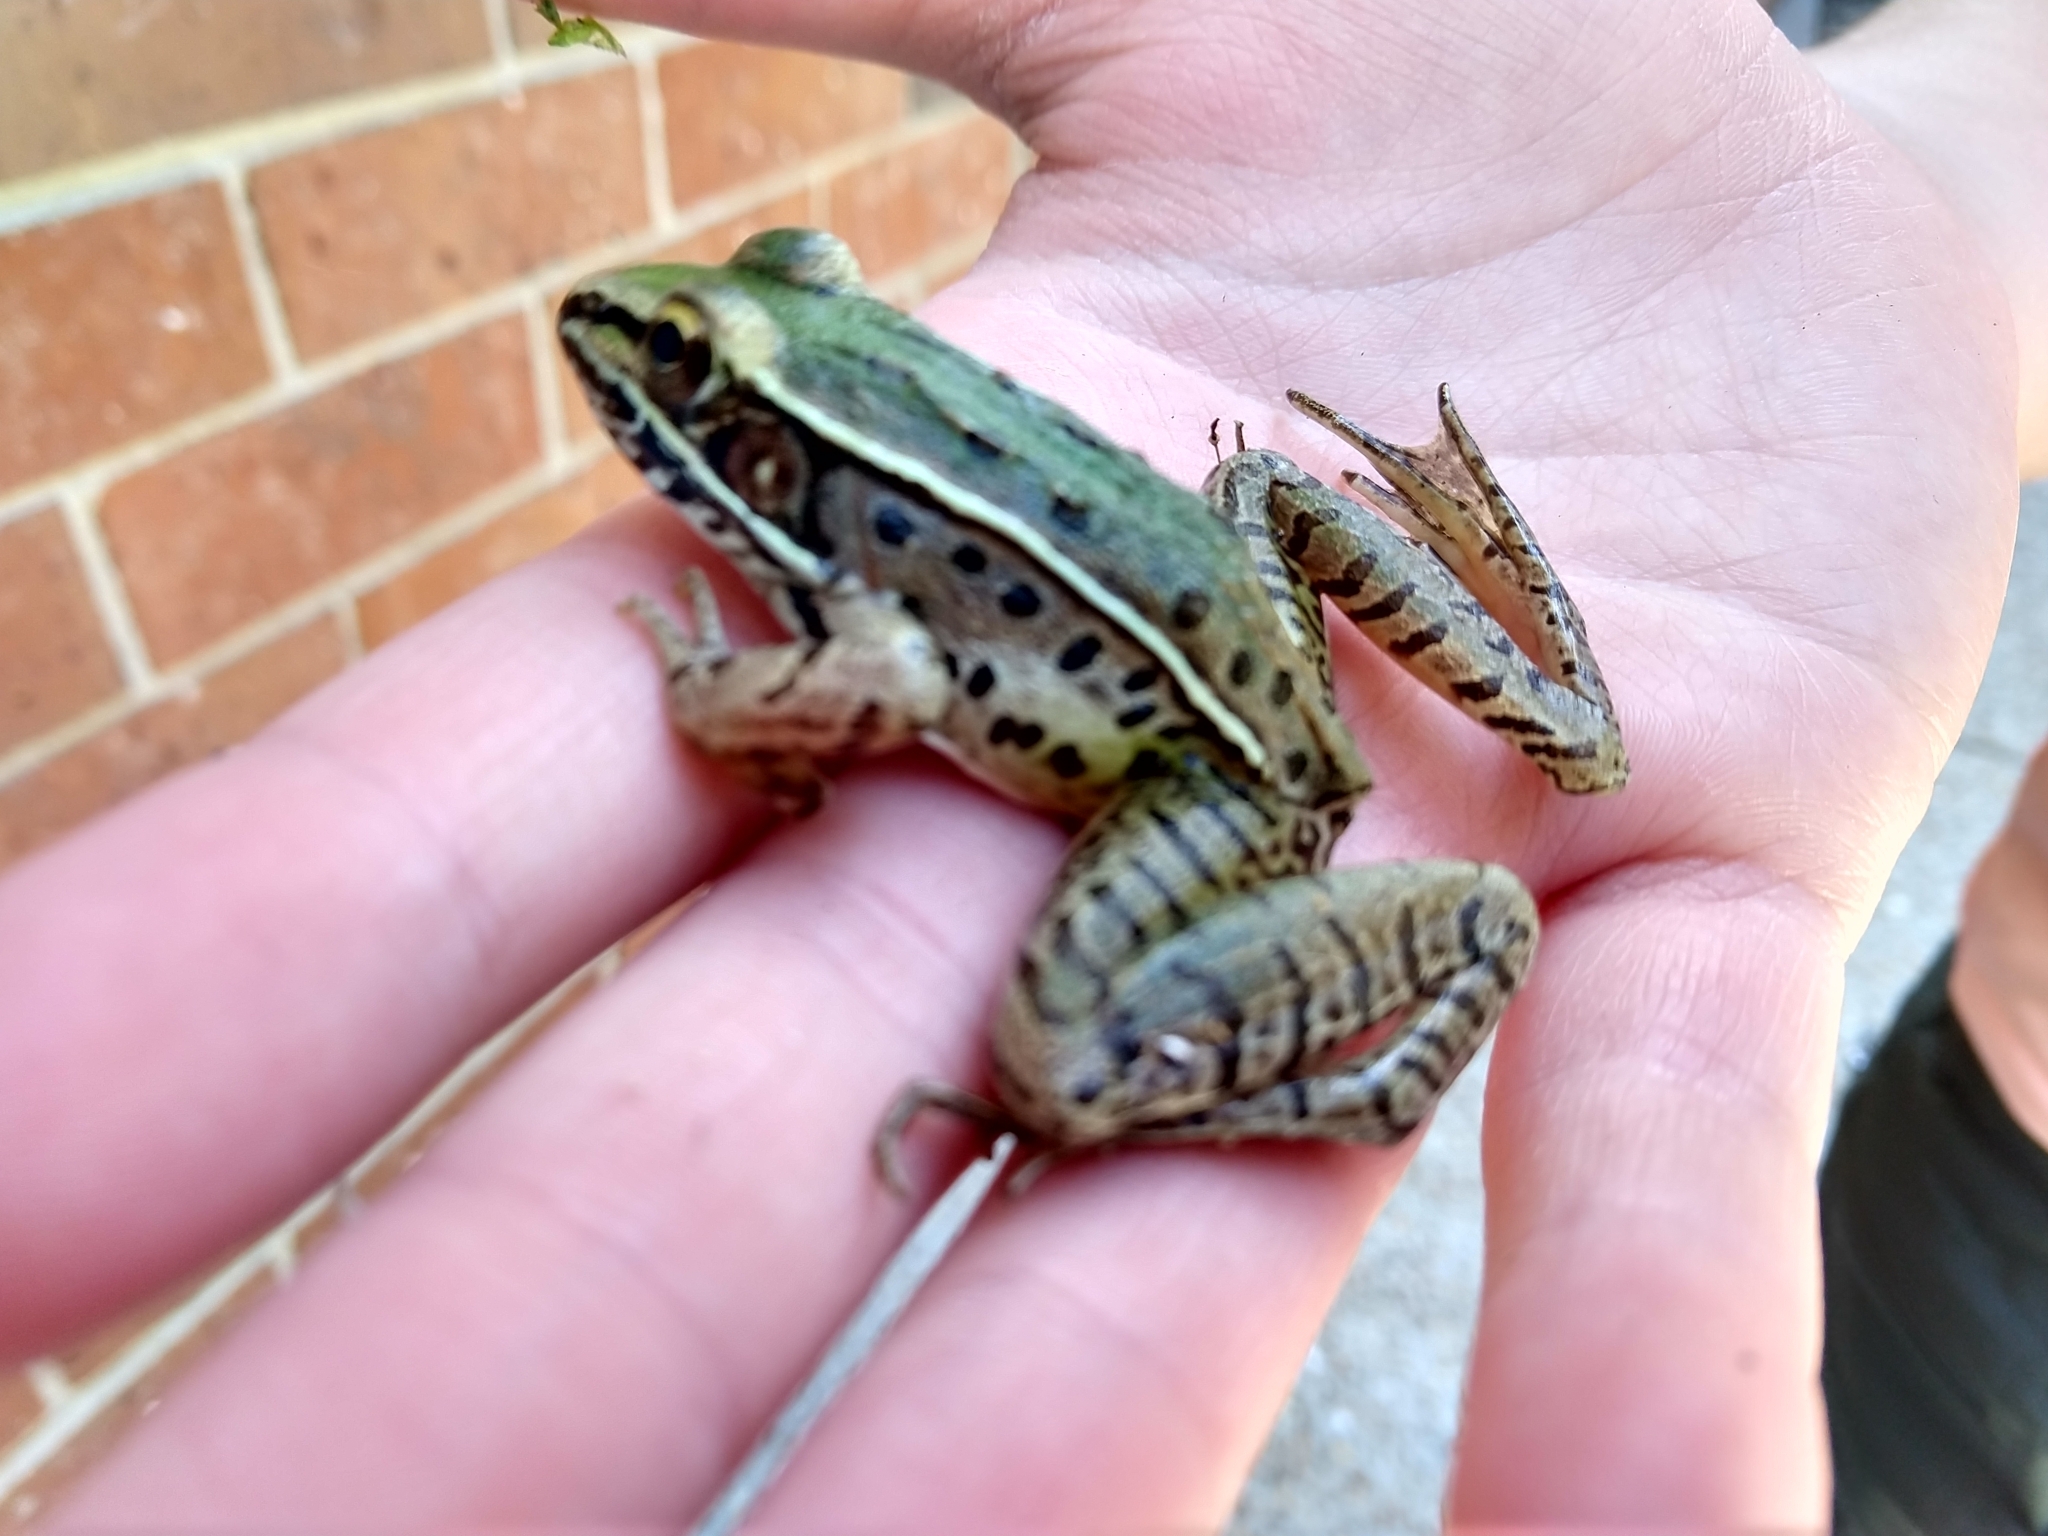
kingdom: Animalia
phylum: Chordata
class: Amphibia
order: Anura
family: Ranidae
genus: Lithobates
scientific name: Lithobates sphenocephalus
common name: Southern leopard frog
